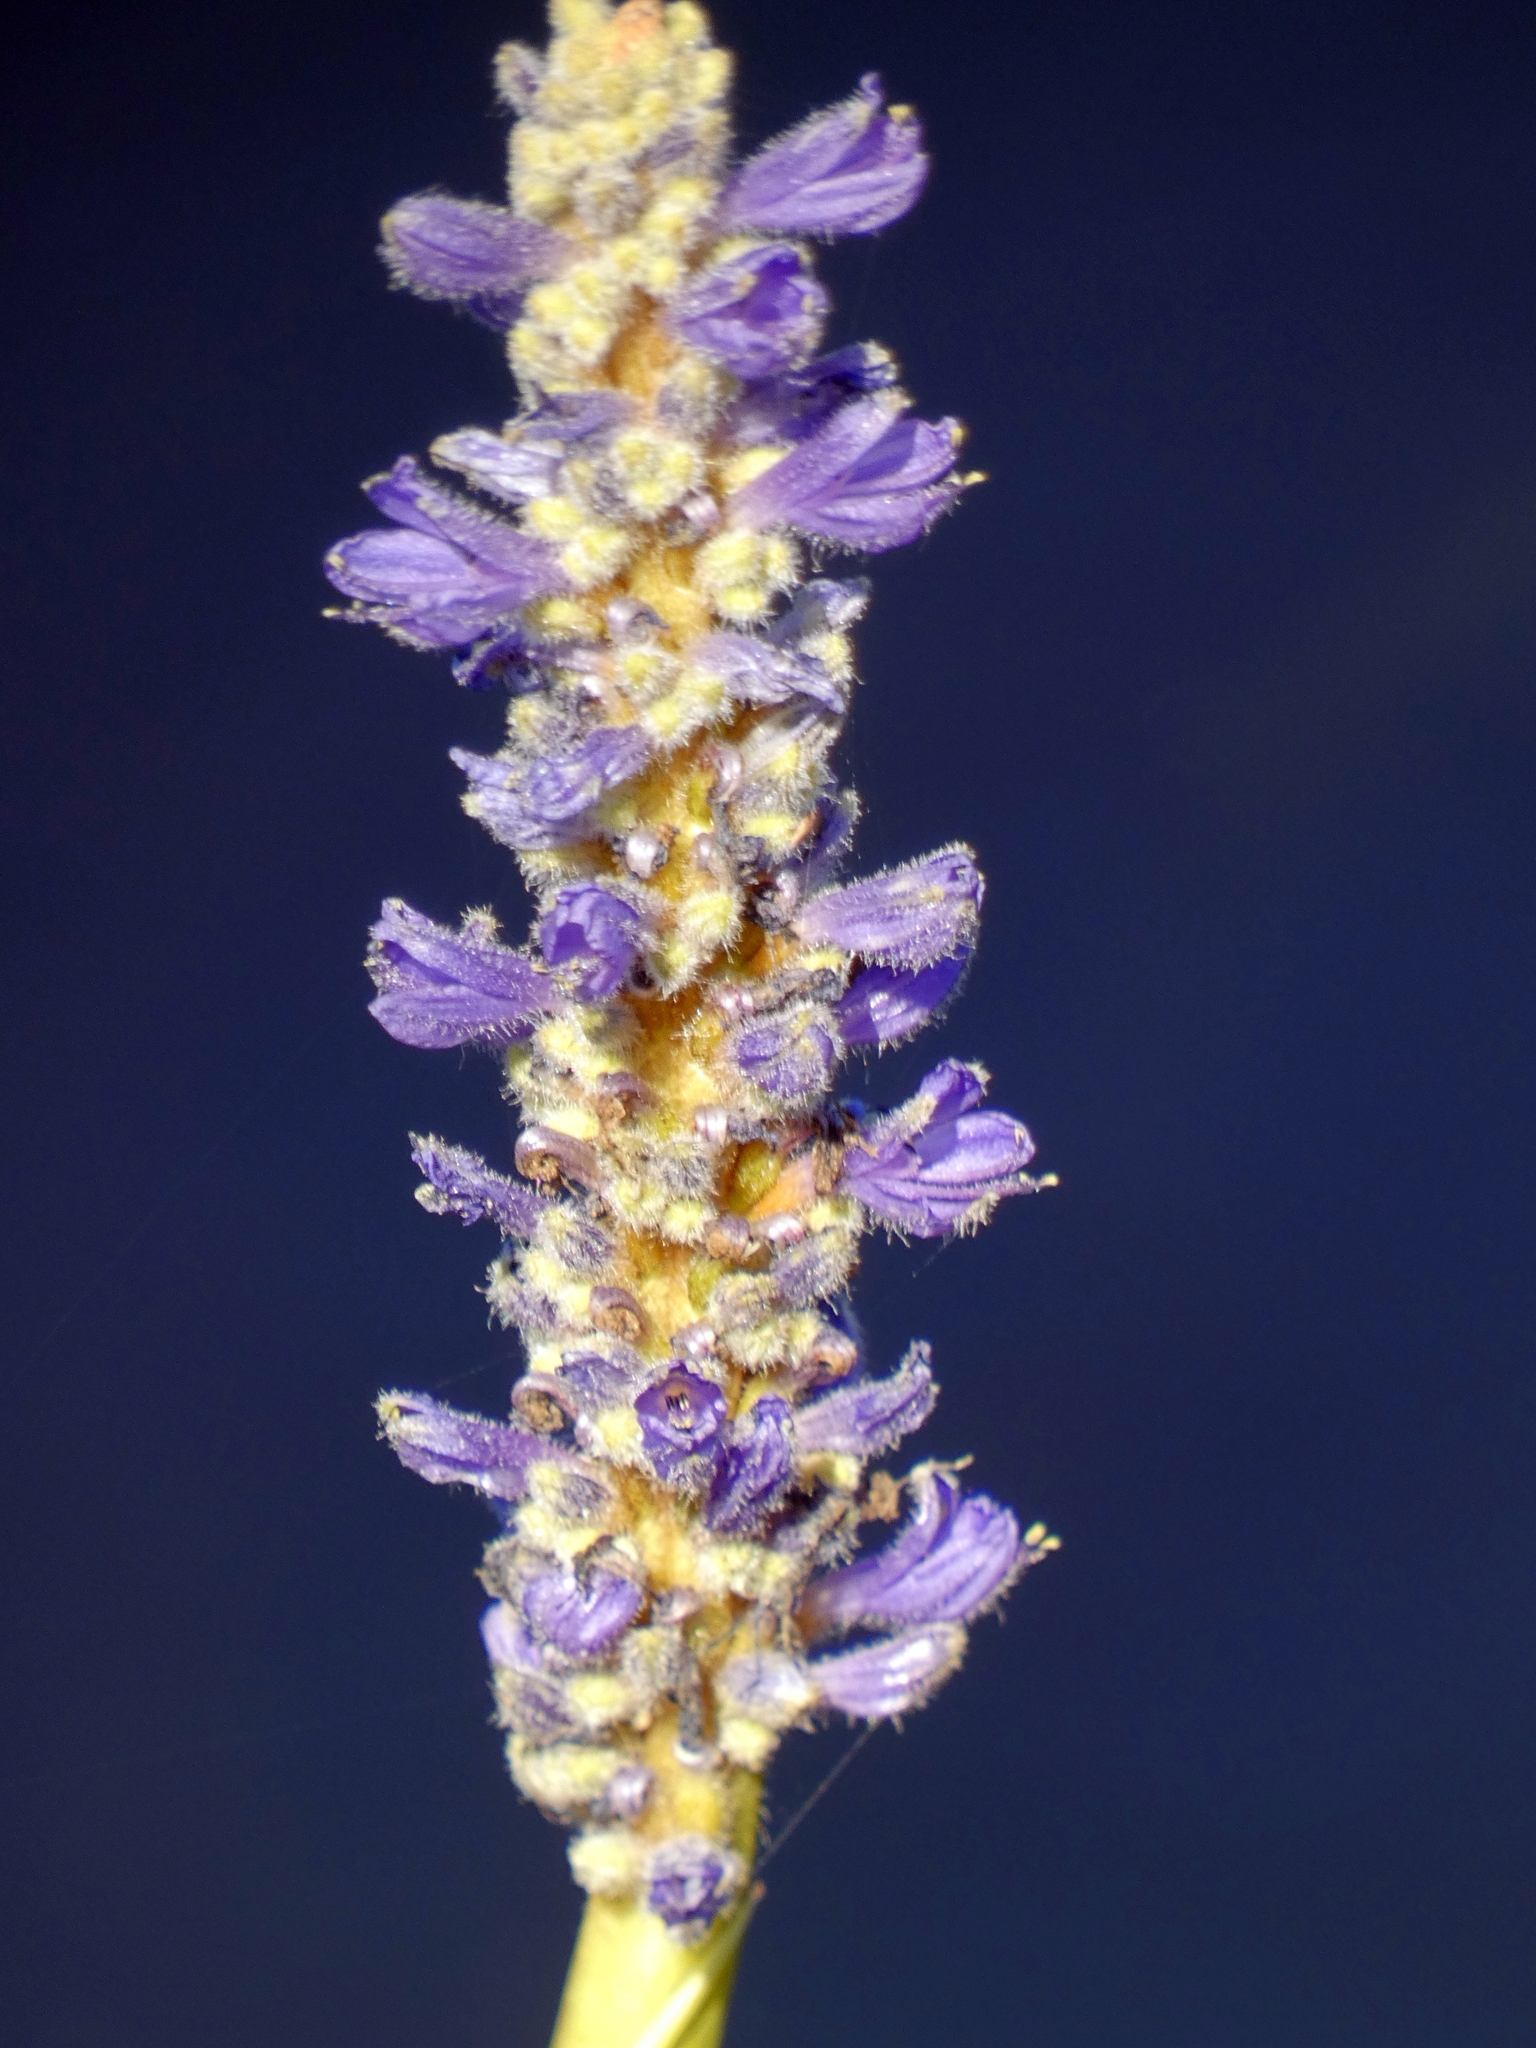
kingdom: Plantae
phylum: Tracheophyta
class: Liliopsida
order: Commelinales
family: Pontederiaceae
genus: Pontederia
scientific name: Pontederia cordata
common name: Pickerelweed
